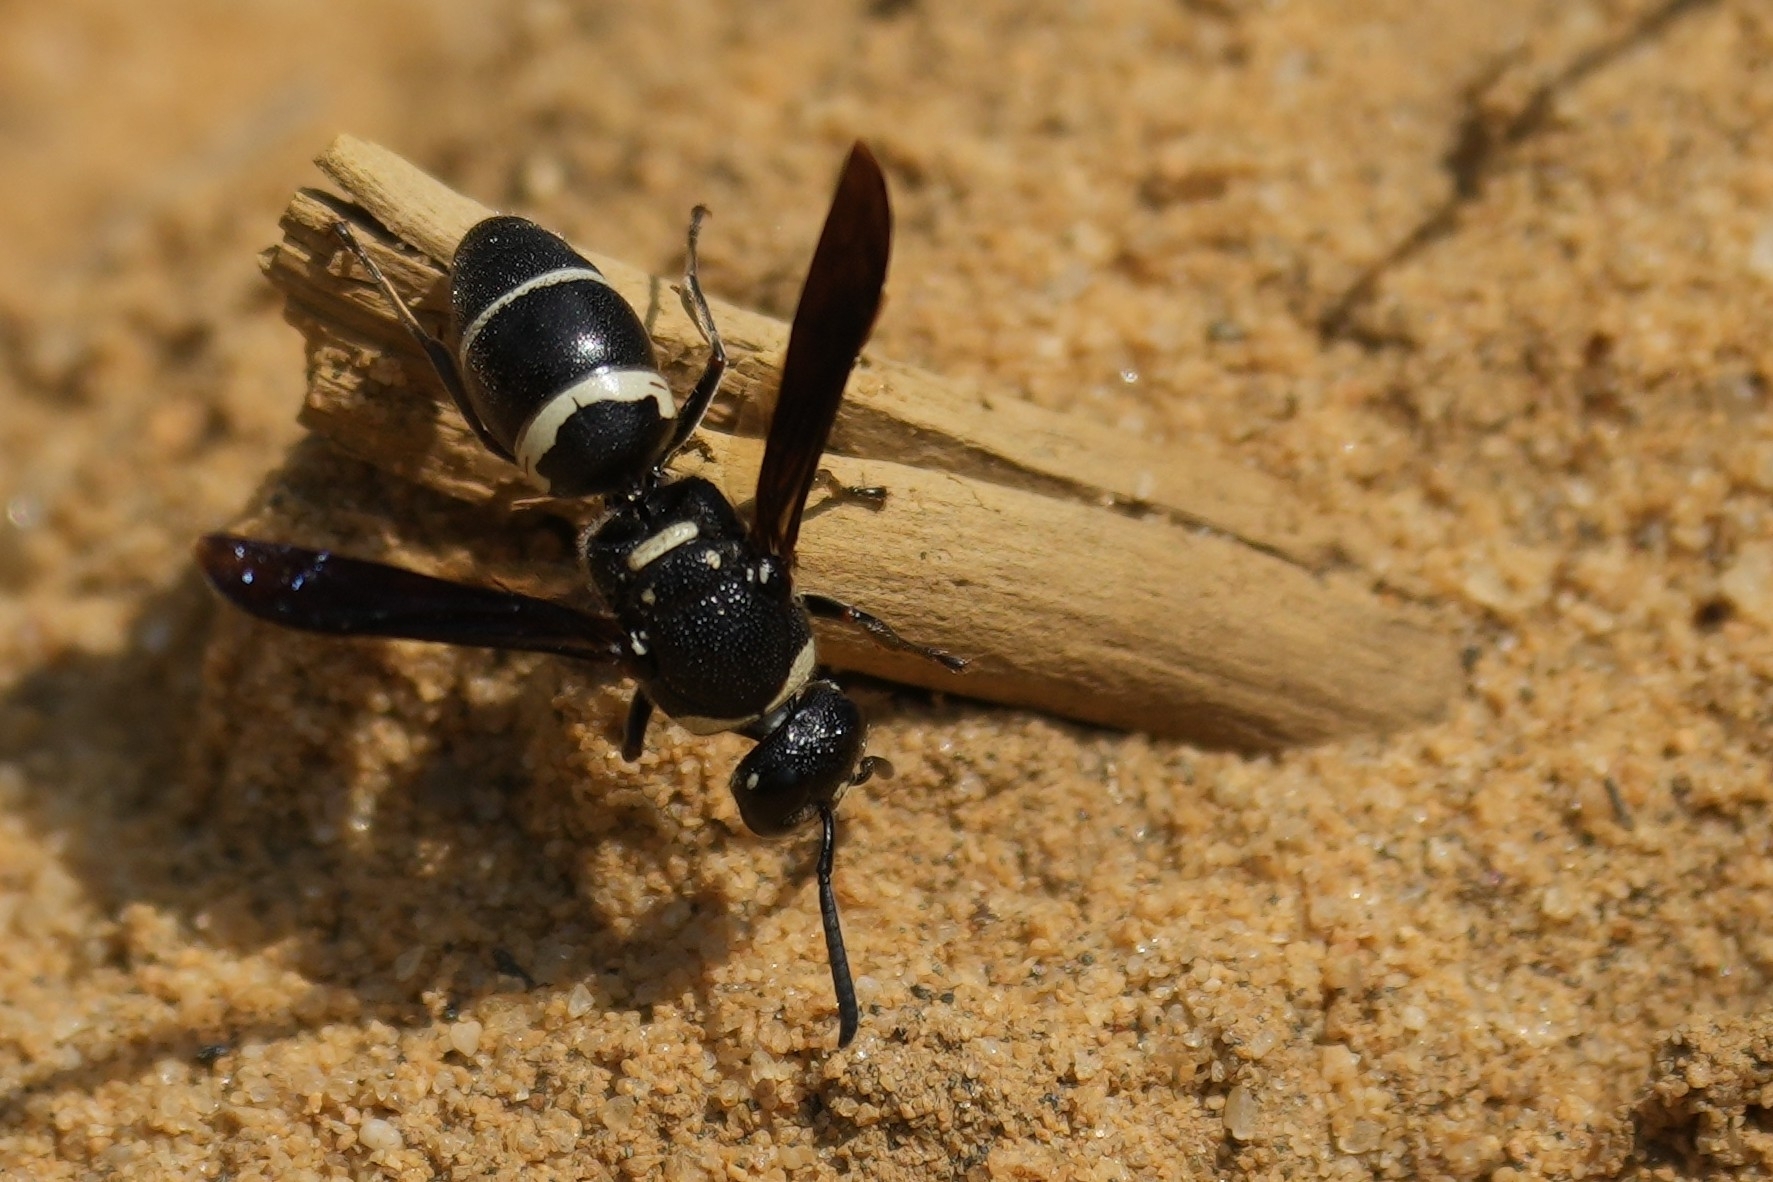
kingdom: Animalia
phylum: Arthropoda
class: Insecta
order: Hymenoptera
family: Eumenidae
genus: Euodynerus
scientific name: Euodynerus megaera
